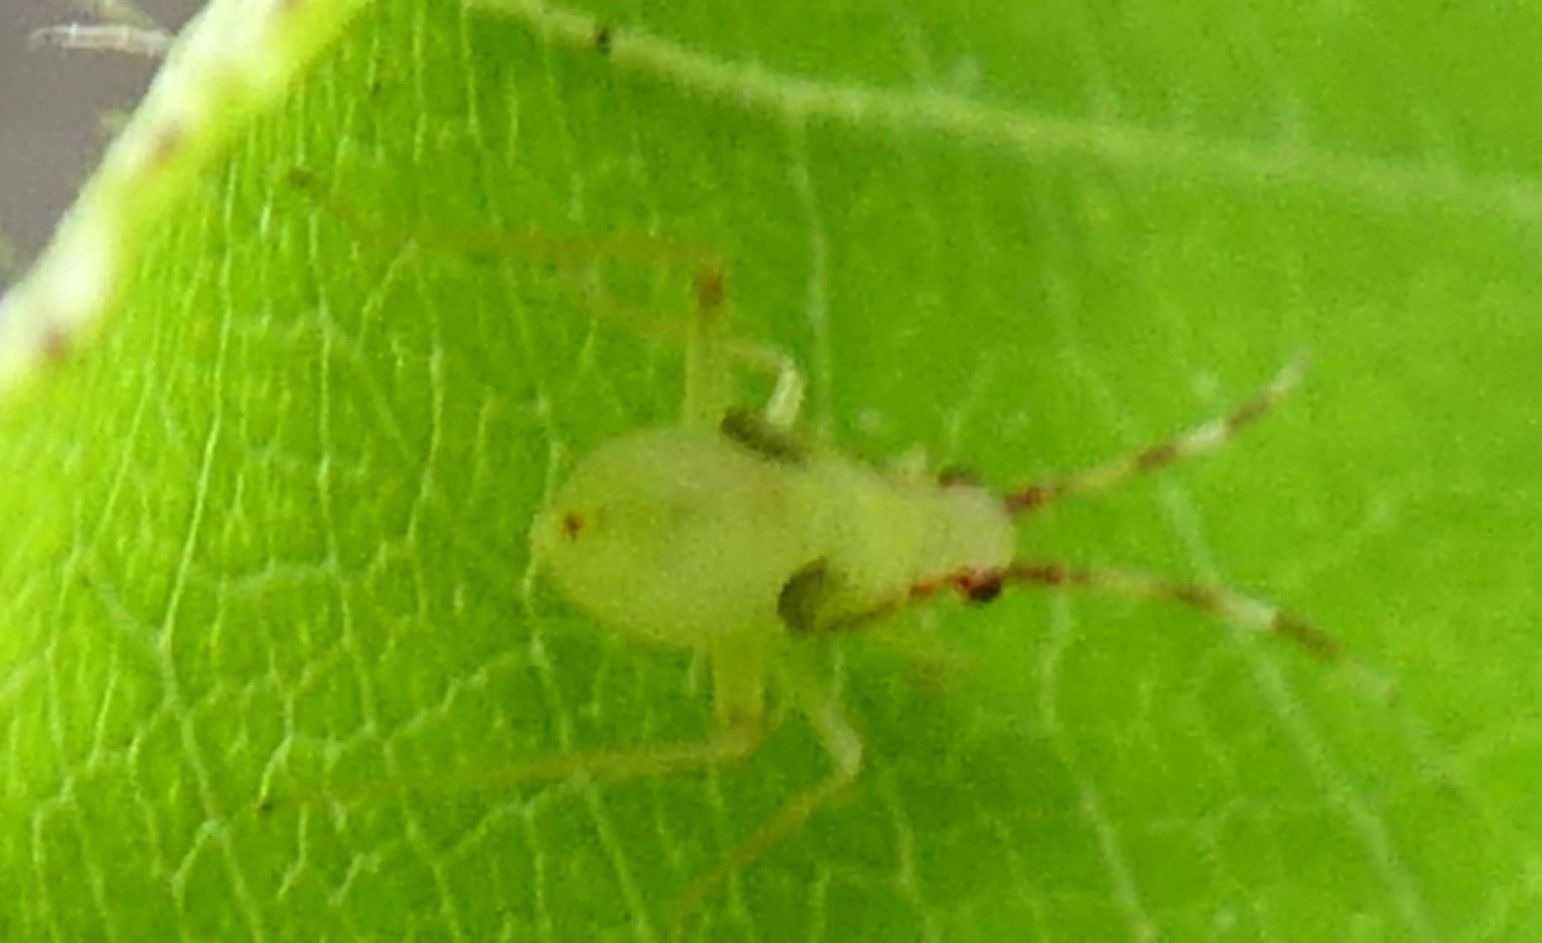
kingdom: Animalia
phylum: Arthropoda
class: Insecta
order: Hemiptera
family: Miridae
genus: Campyloneura
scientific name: Campyloneura virgula
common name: Predatory bug
